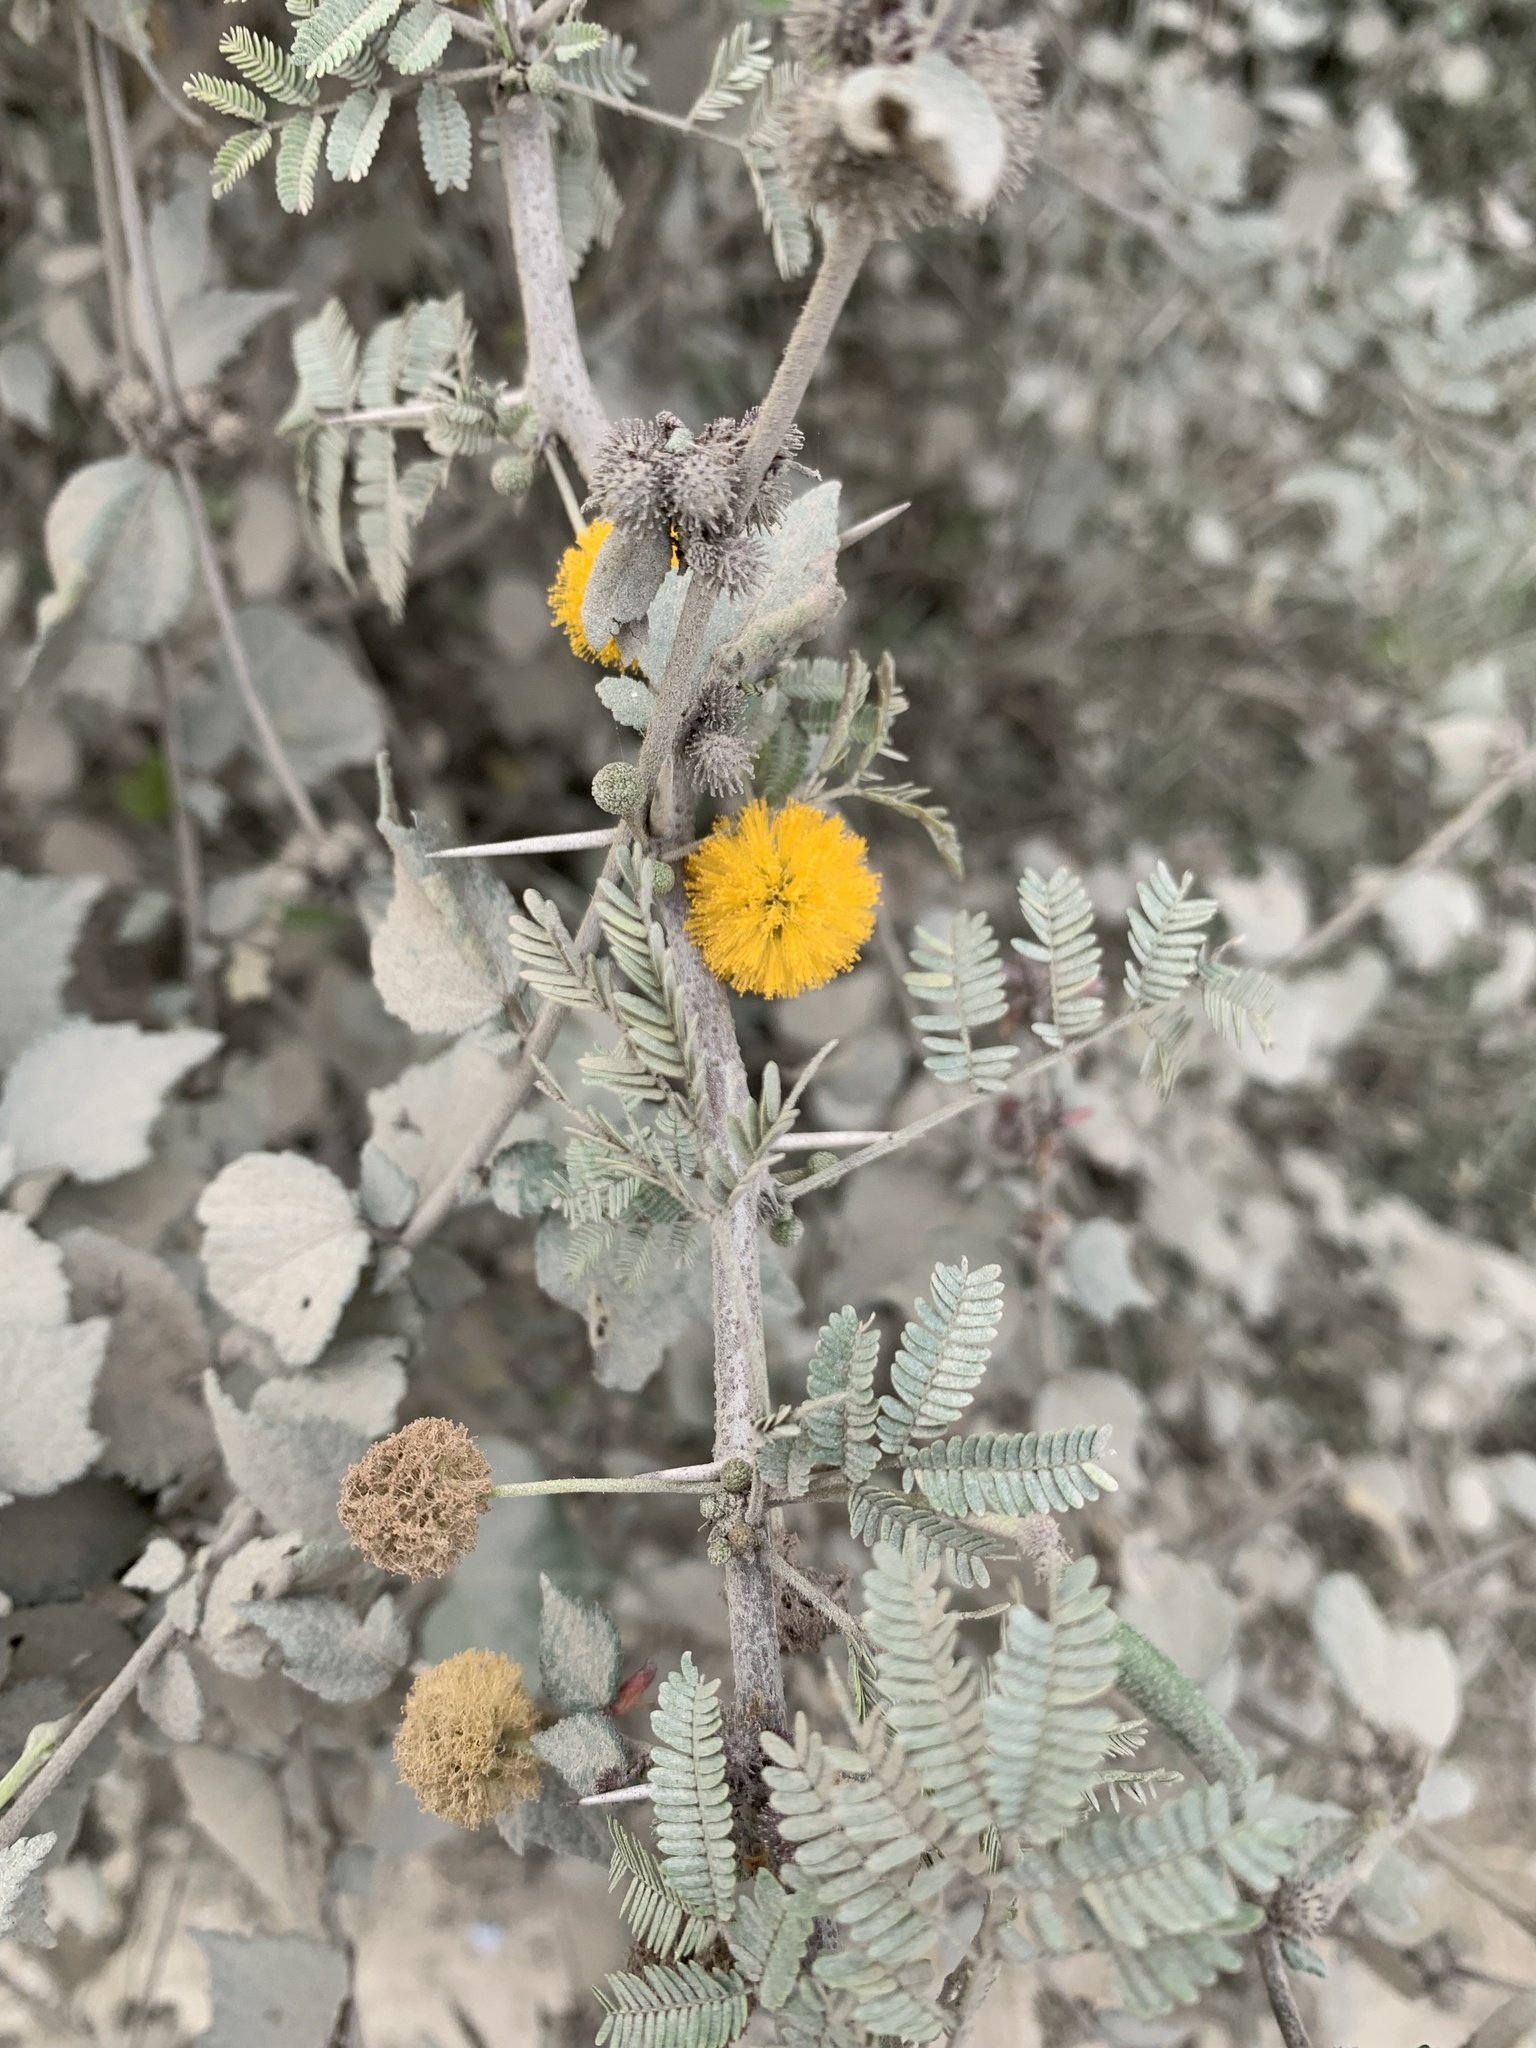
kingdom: Plantae
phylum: Tracheophyta
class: Magnoliopsida
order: Fabales
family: Fabaceae
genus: Vachellia
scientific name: Vachellia farnesiana
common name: Sweet acacia
